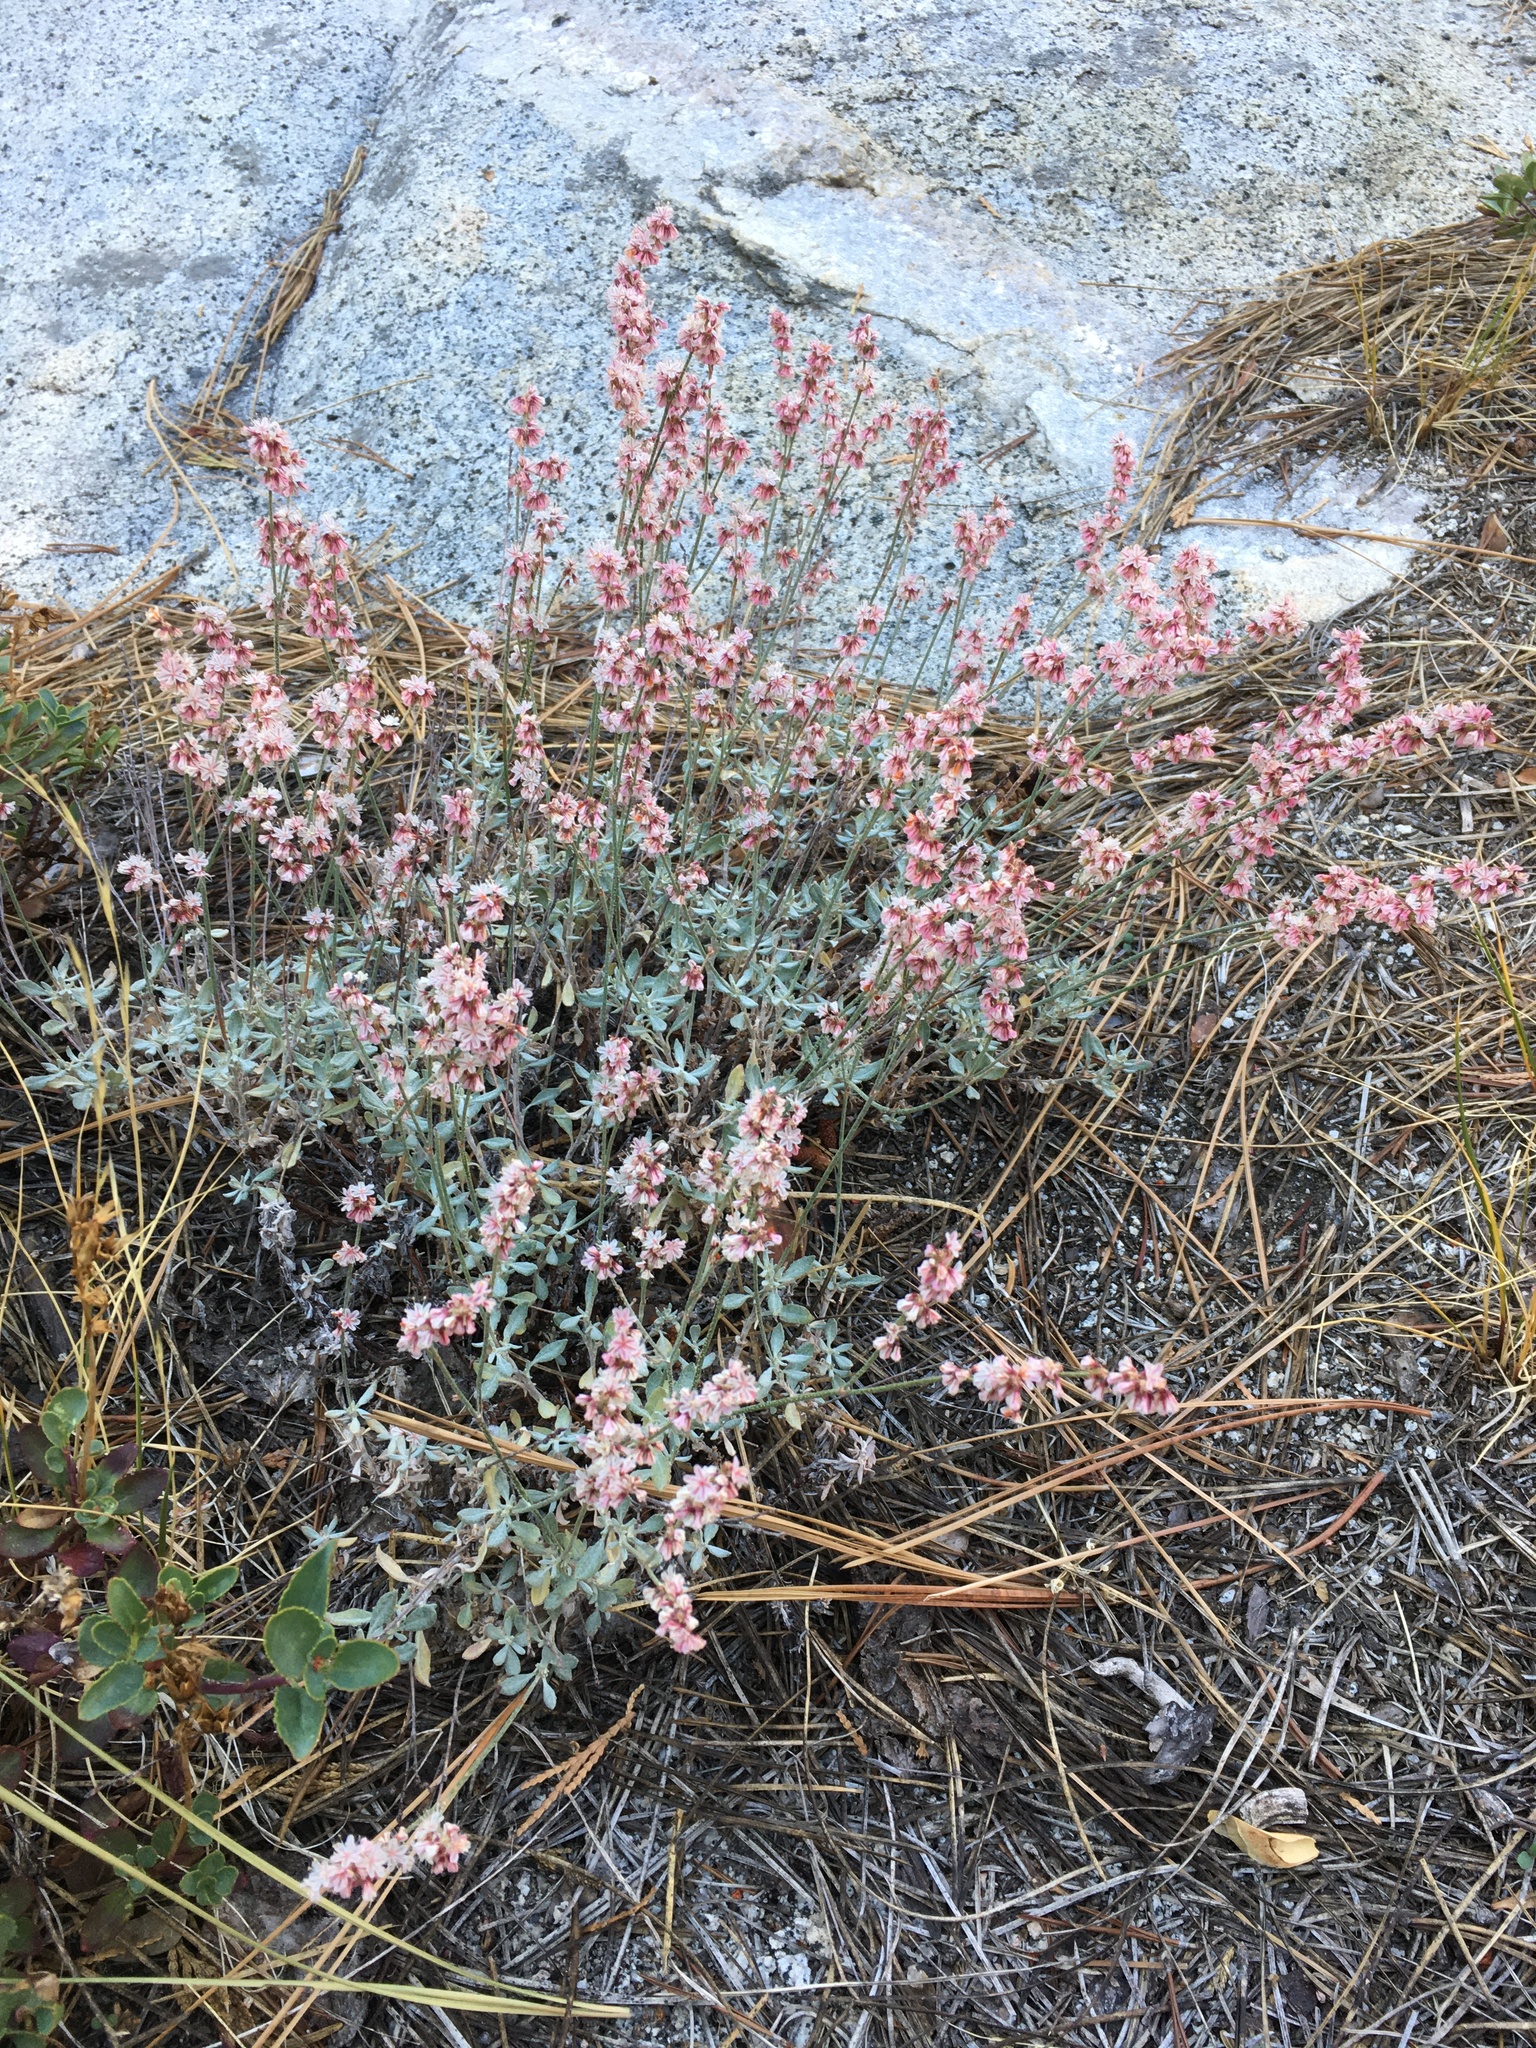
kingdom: Plantae
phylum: Tracheophyta
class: Magnoliopsida
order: Caryophyllales
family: Polygonaceae
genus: Eriogonum
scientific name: Eriogonum wrightii
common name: Bastard-sage
